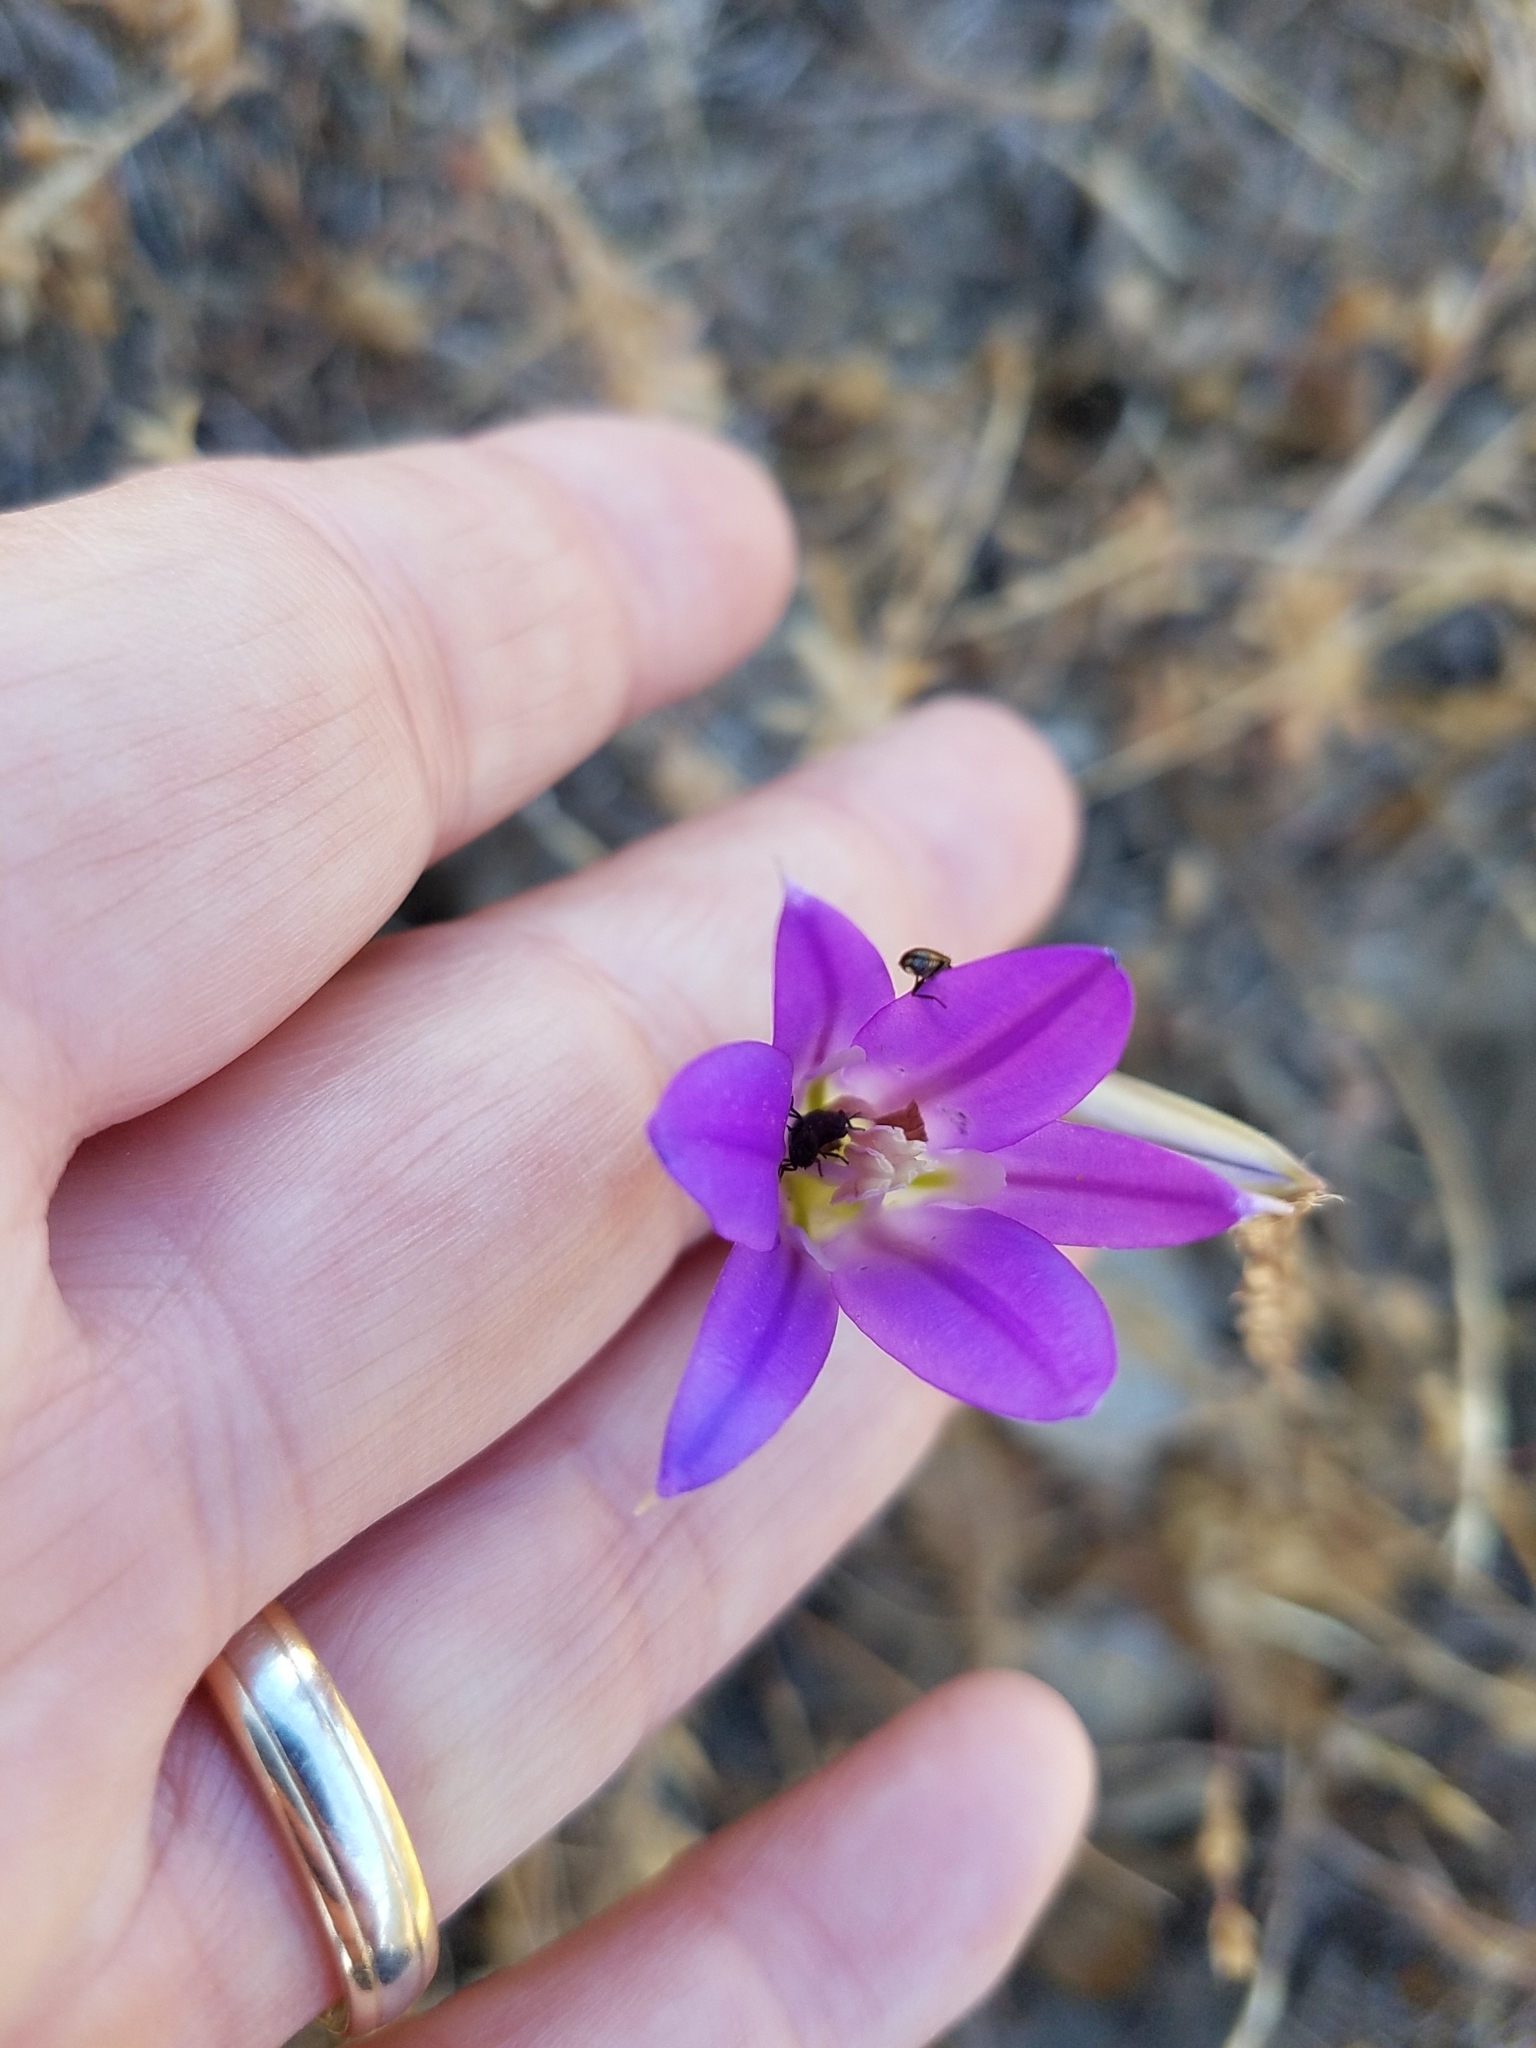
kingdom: Plantae
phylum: Tracheophyta
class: Liliopsida
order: Asparagales
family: Asparagaceae
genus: Brodiaea
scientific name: Brodiaea elegans
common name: Elegant cluster-lily
